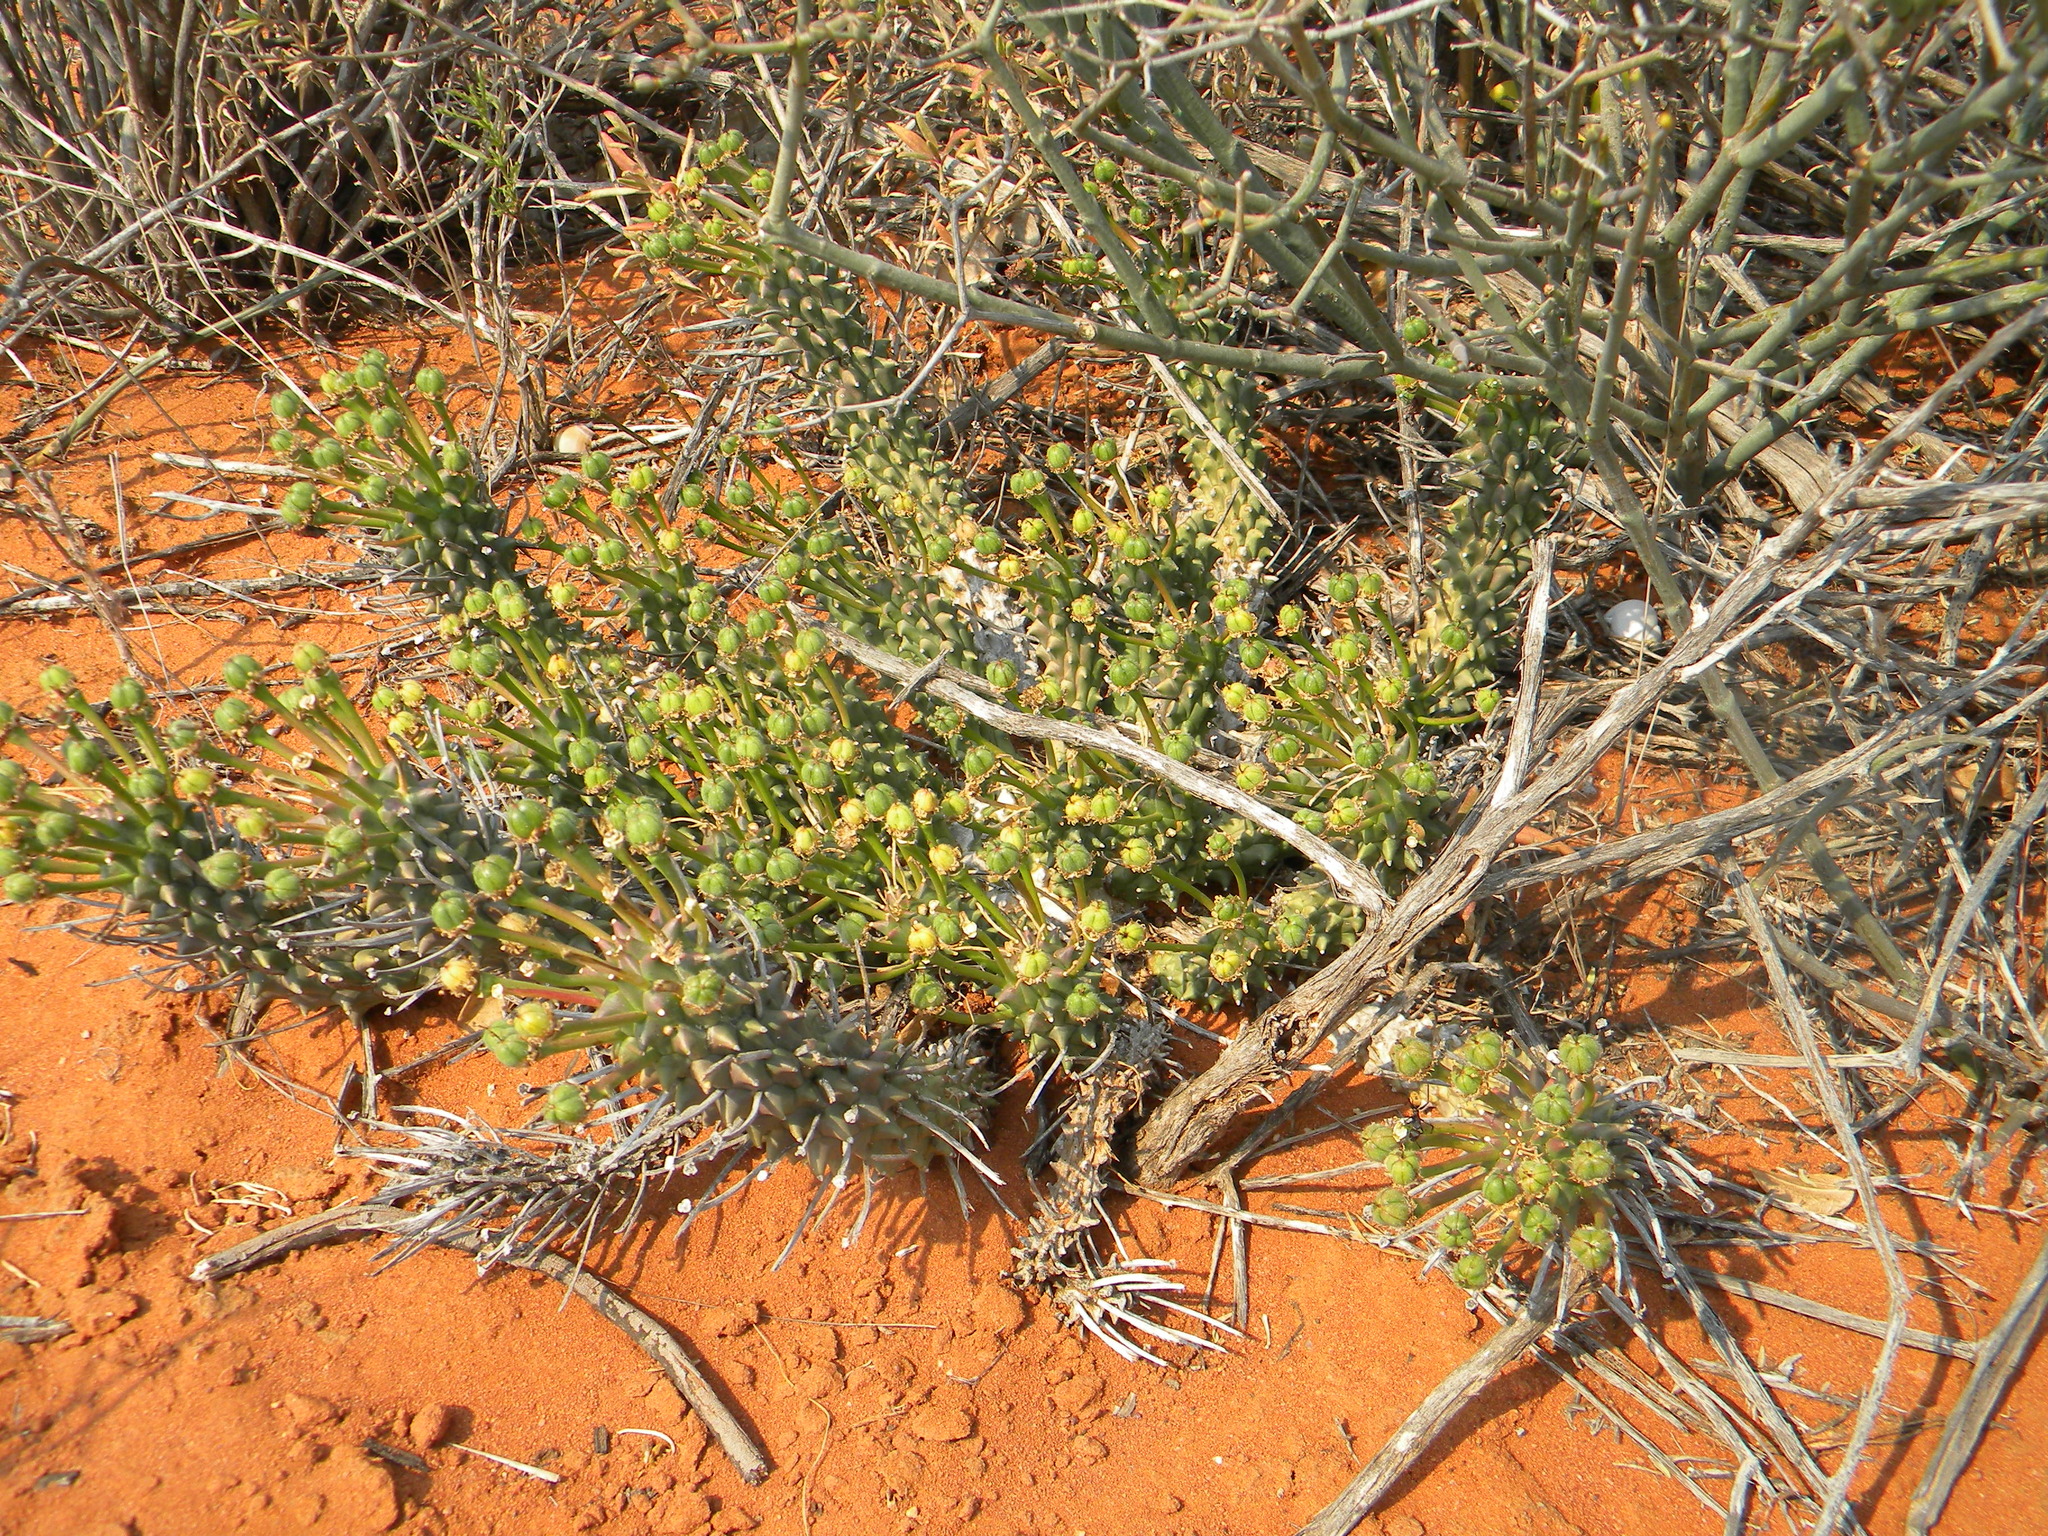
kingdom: Plantae
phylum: Tracheophyta
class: Magnoliopsida
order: Malpighiales
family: Euphorbiaceae
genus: Euphorbia
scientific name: Euphorbia caput-medusae
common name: Medusa's-head
